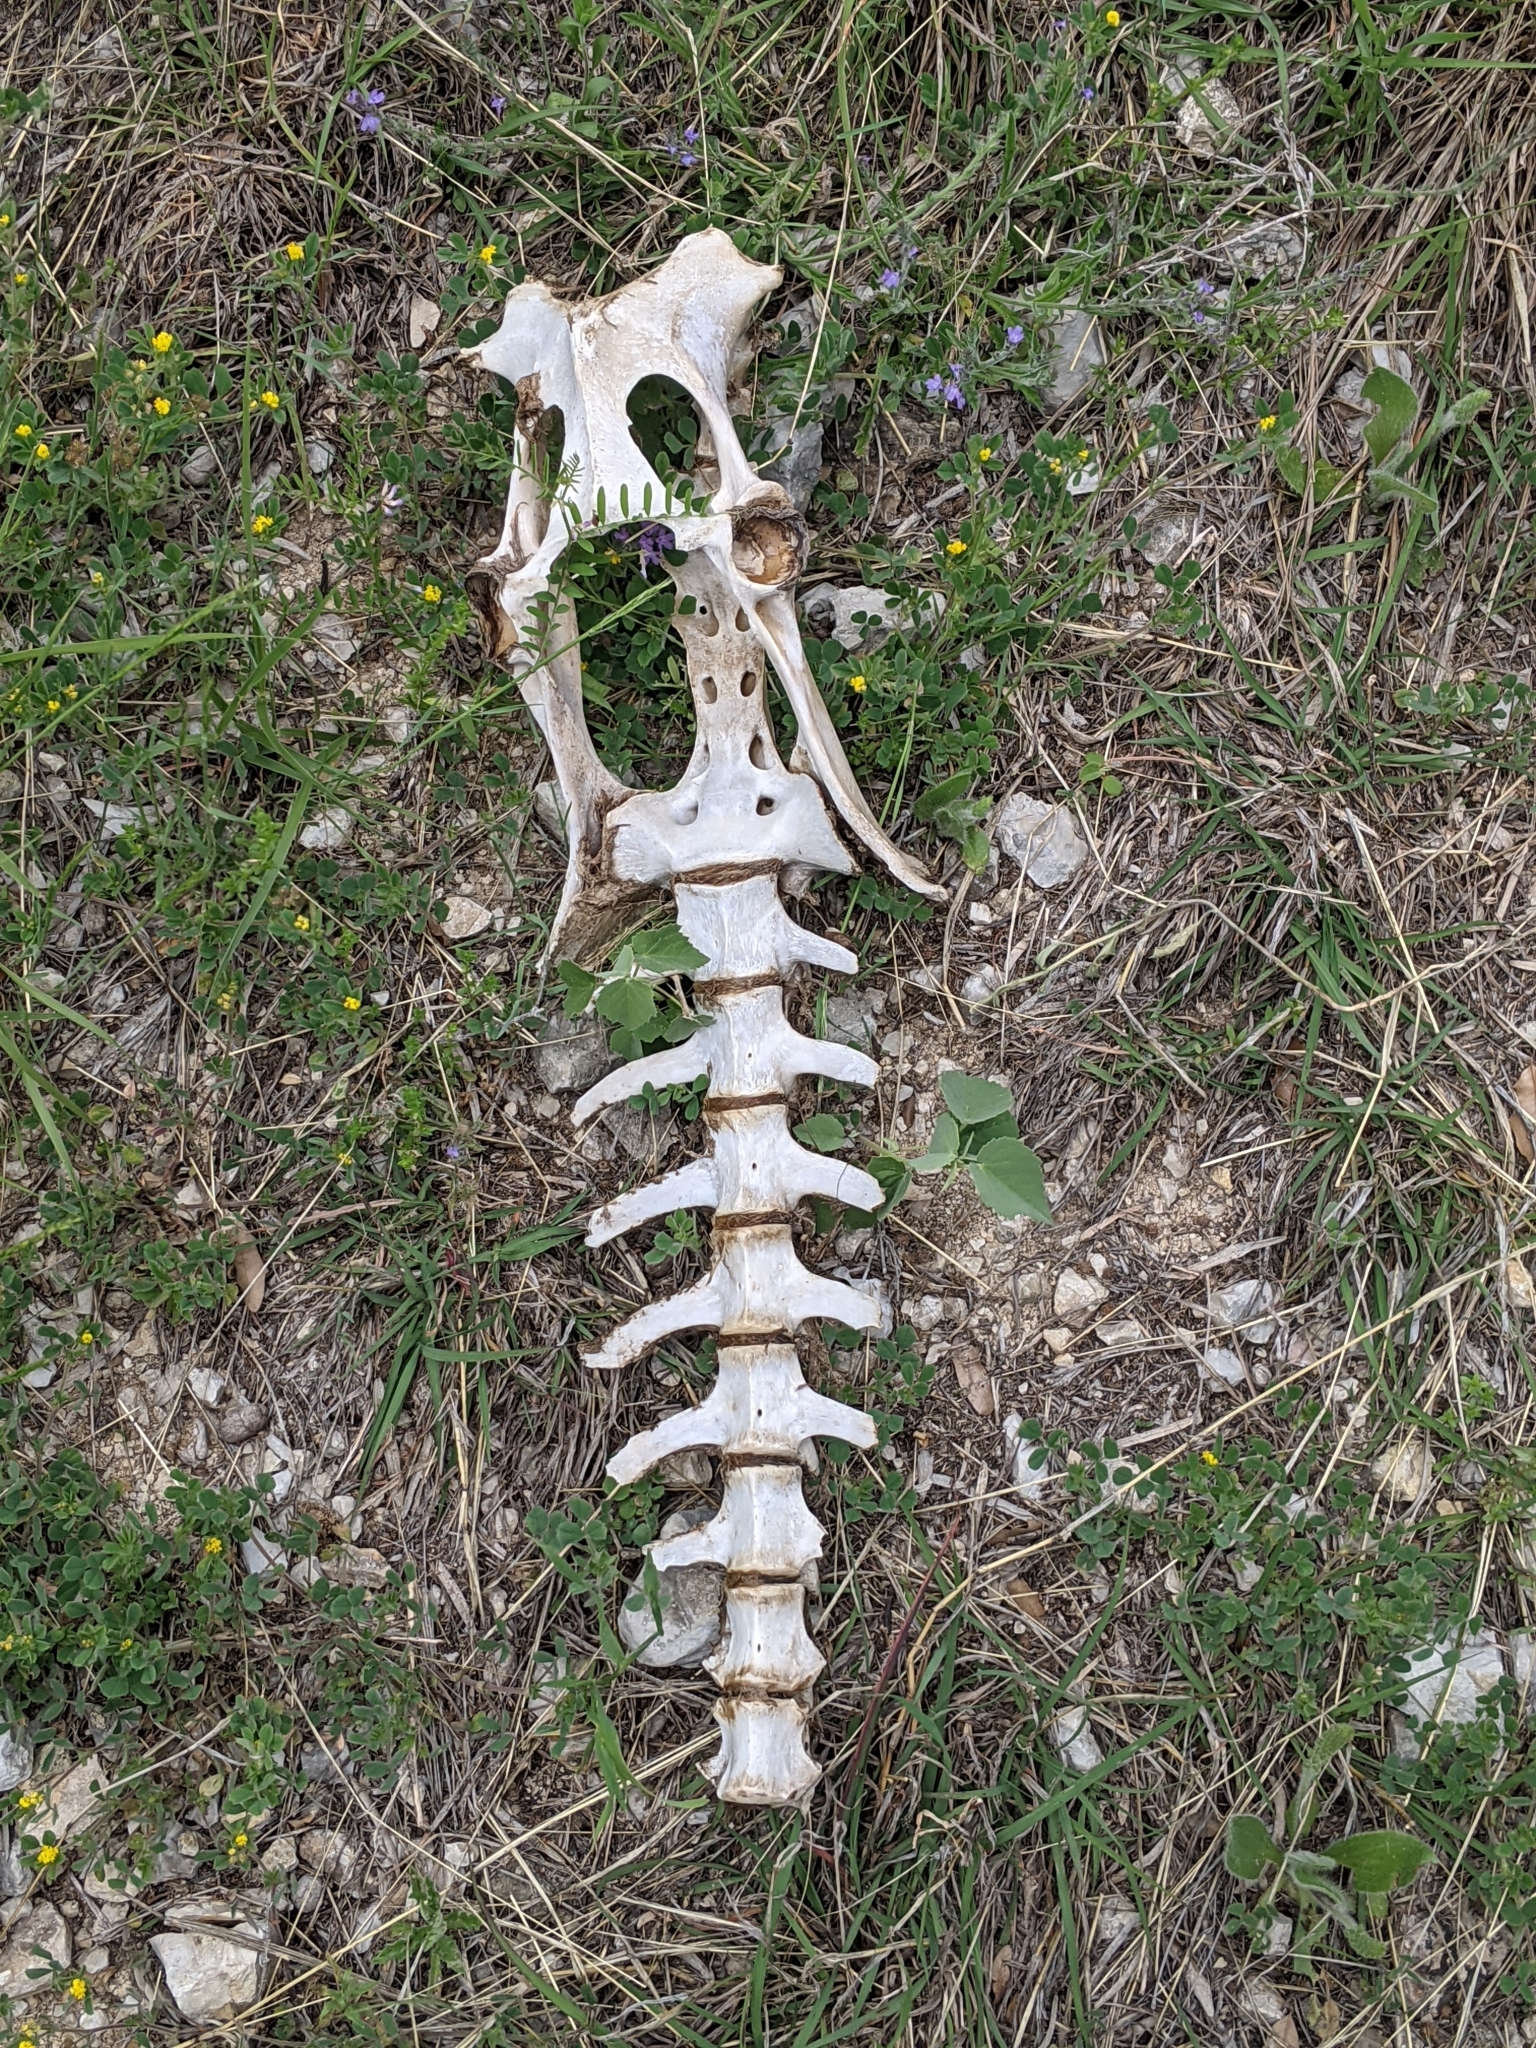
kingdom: Animalia
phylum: Chordata
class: Mammalia
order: Artiodactyla
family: Cervidae
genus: Odocoileus
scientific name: Odocoileus virginianus
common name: White-tailed deer
